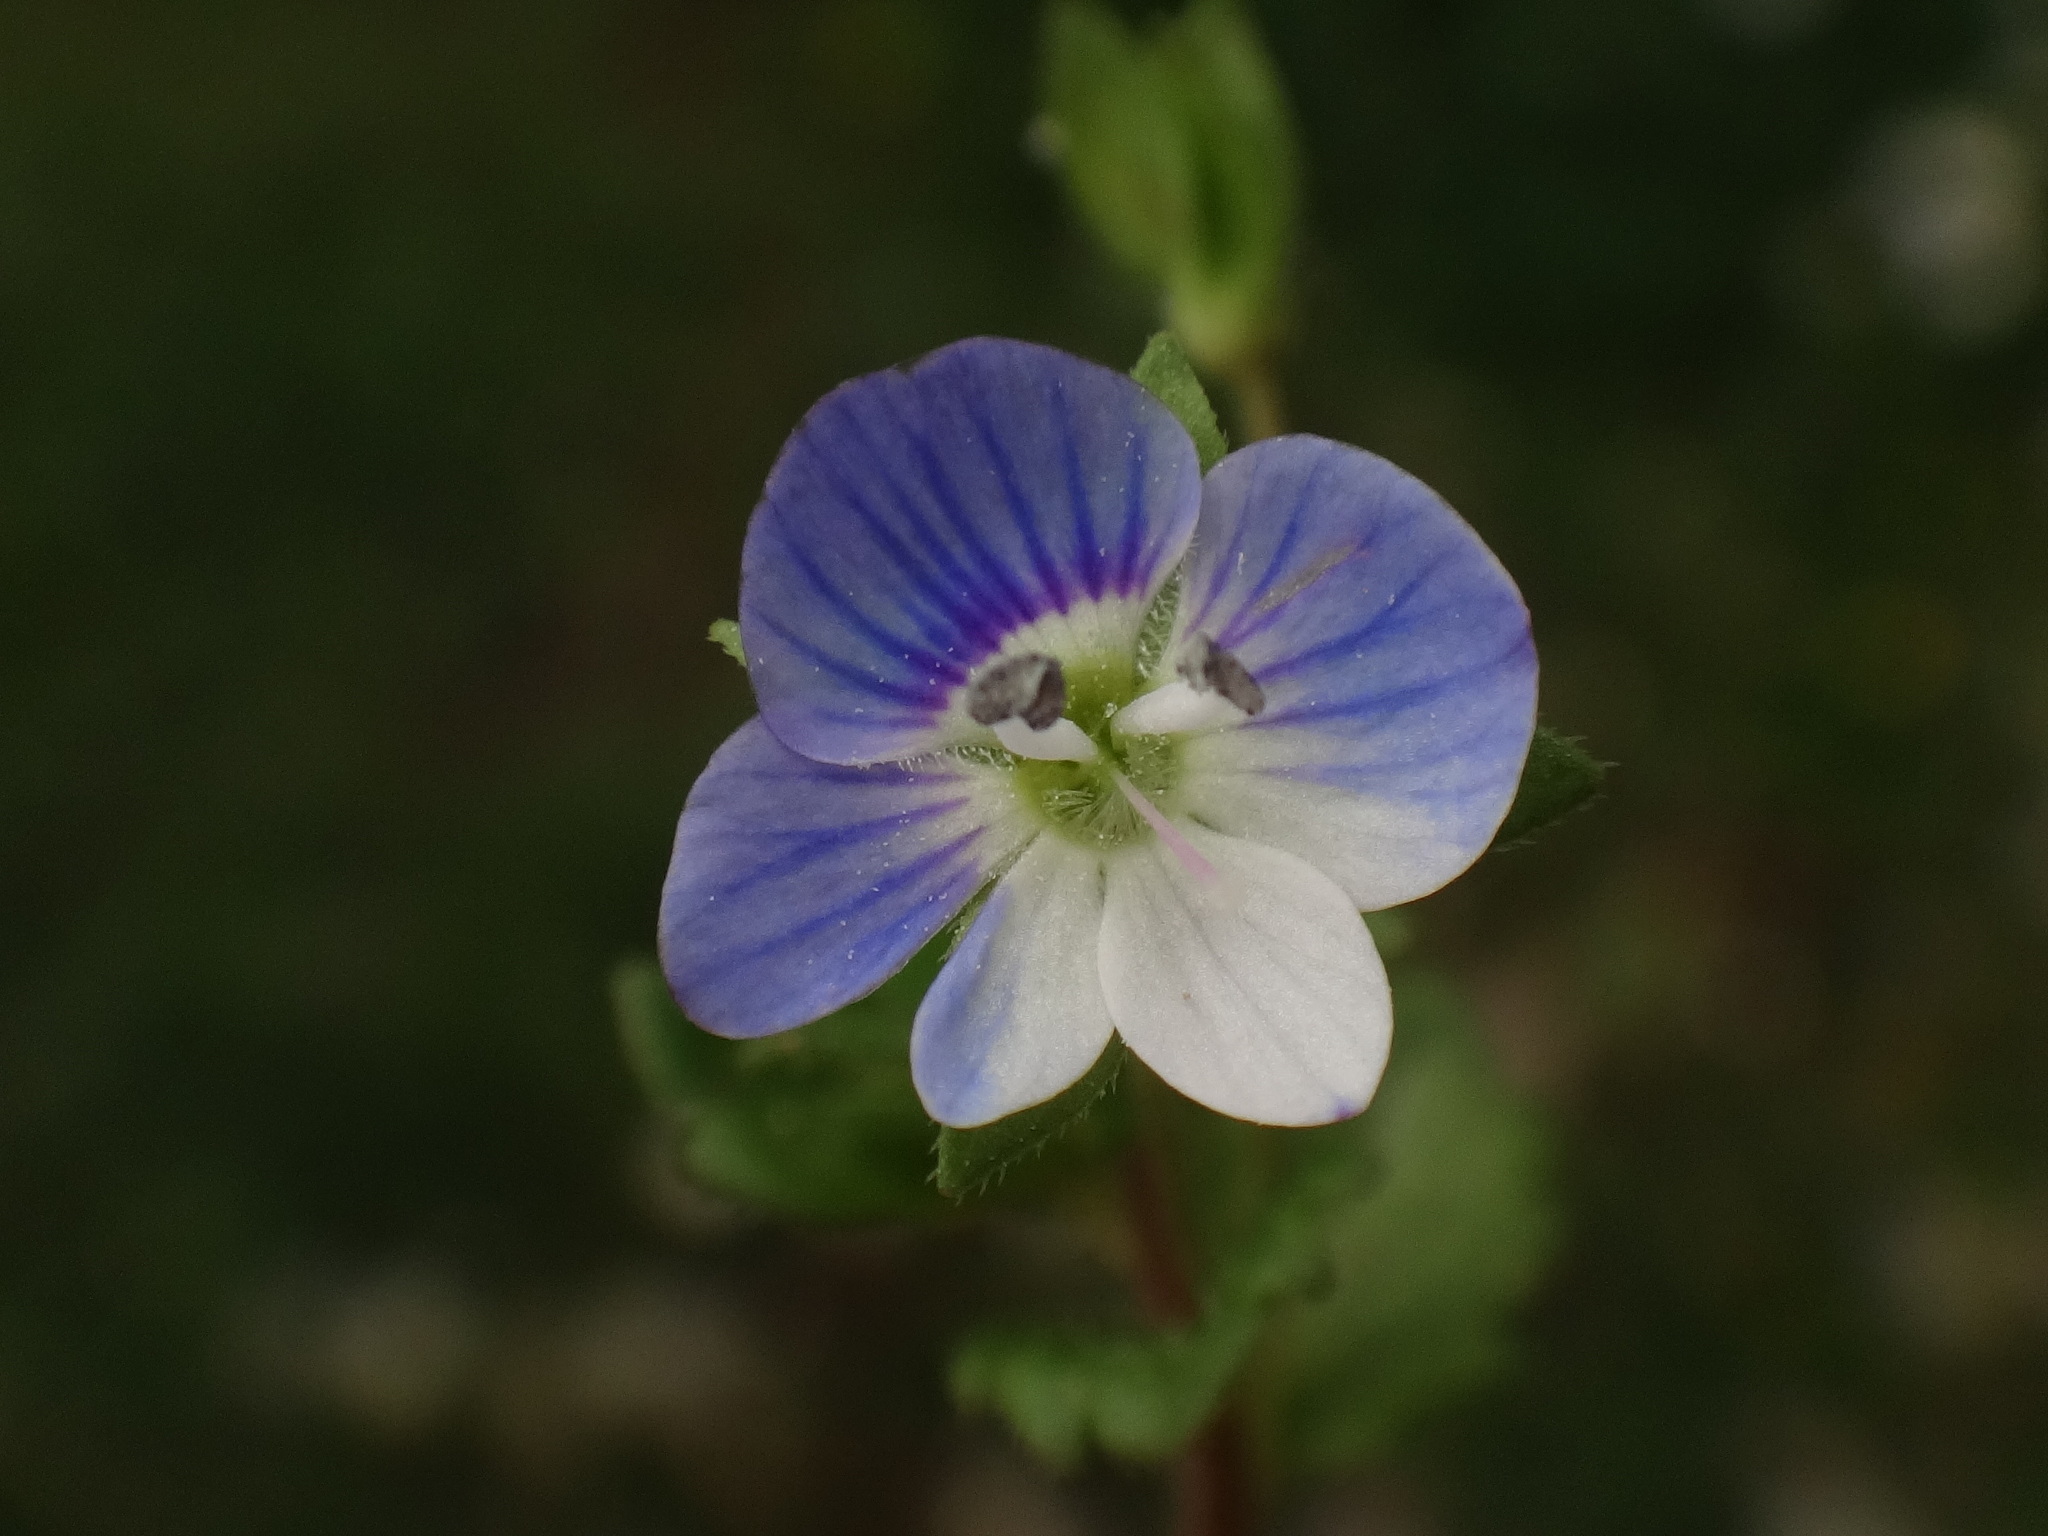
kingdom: Plantae
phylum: Tracheophyta
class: Magnoliopsida
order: Lamiales
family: Plantaginaceae
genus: Veronica
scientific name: Veronica filiformis
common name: Slender speedwell
